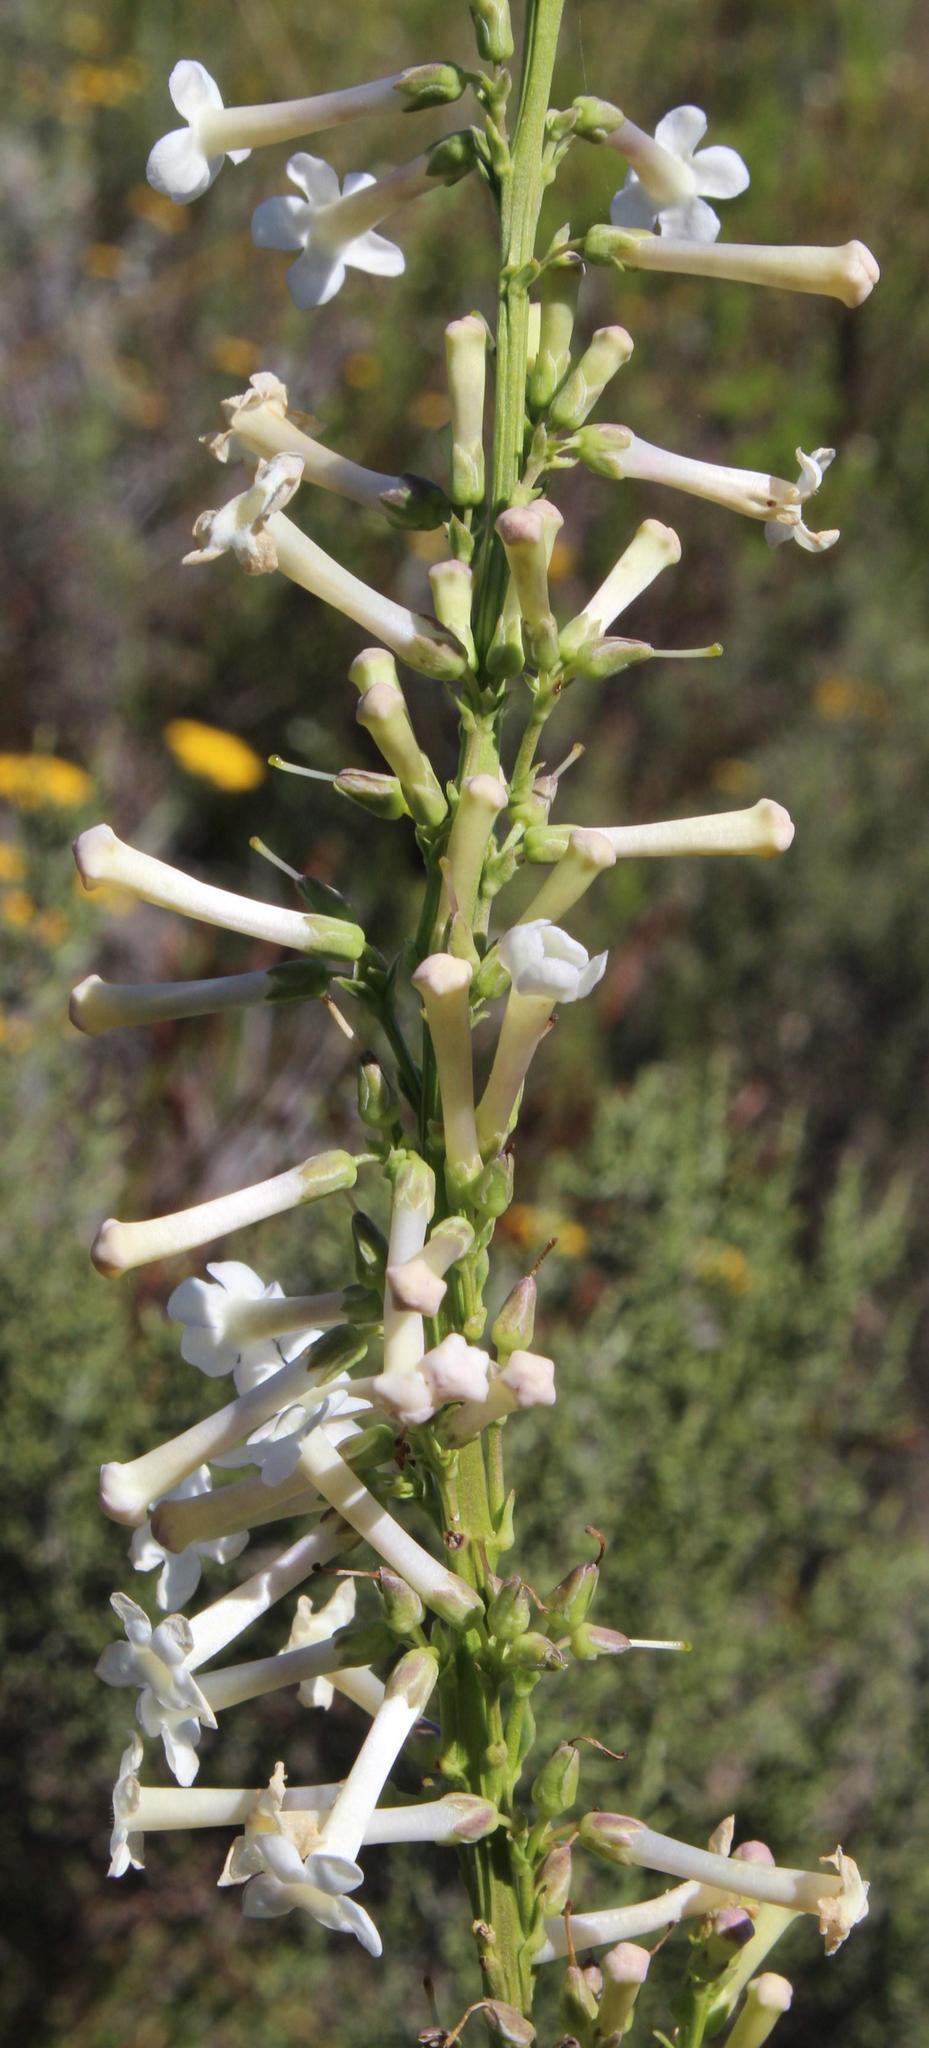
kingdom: Plantae
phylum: Tracheophyta
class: Magnoliopsida
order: Lamiales
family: Scrophulariaceae
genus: Freylinia
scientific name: Freylinia longiflora
